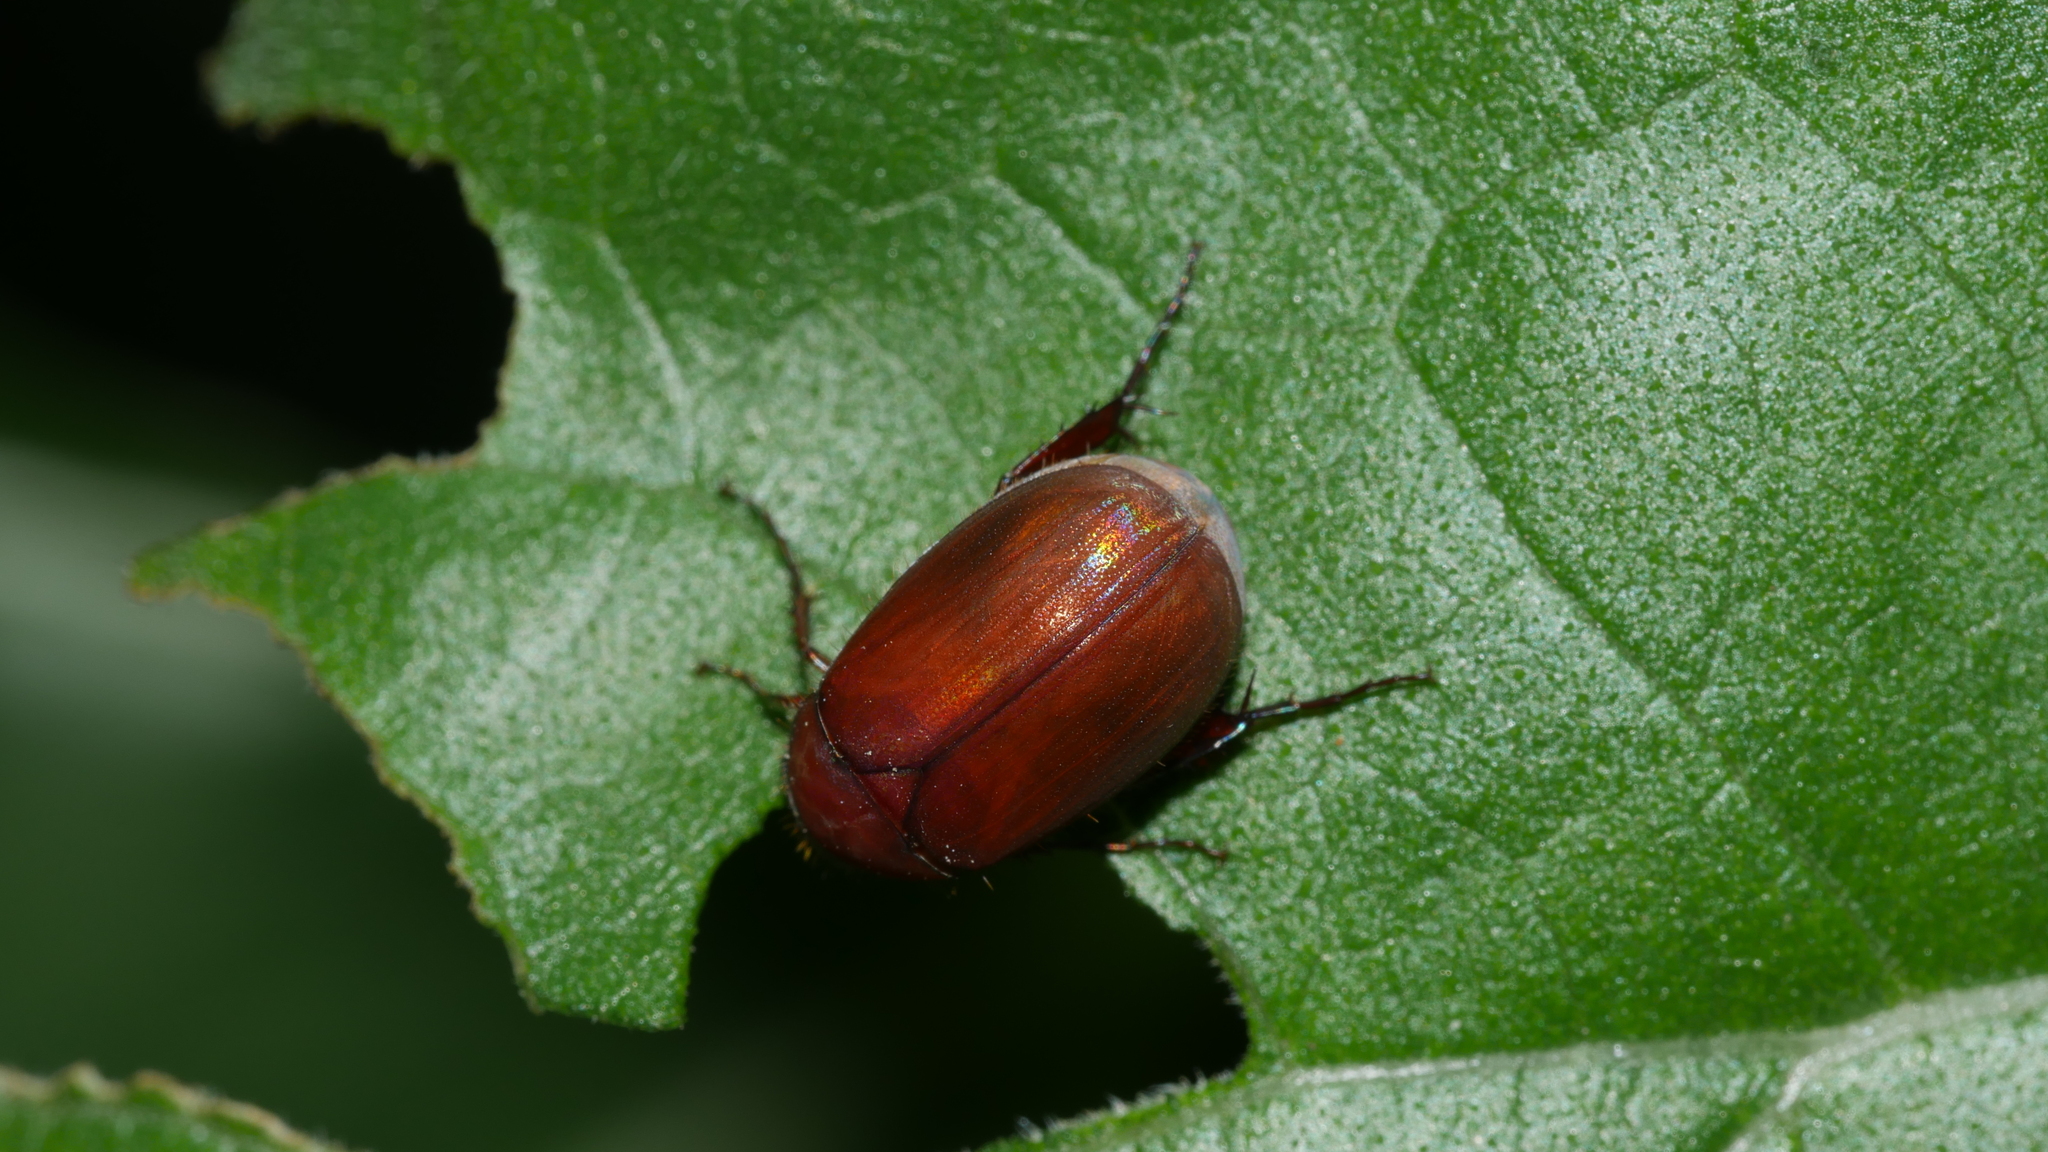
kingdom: Animalia
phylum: Arthropoda
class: Insecta
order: Coleoptera
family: Scarabaeidae
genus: Maladera
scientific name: Maladera formosae
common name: Asiatic garden beetle
